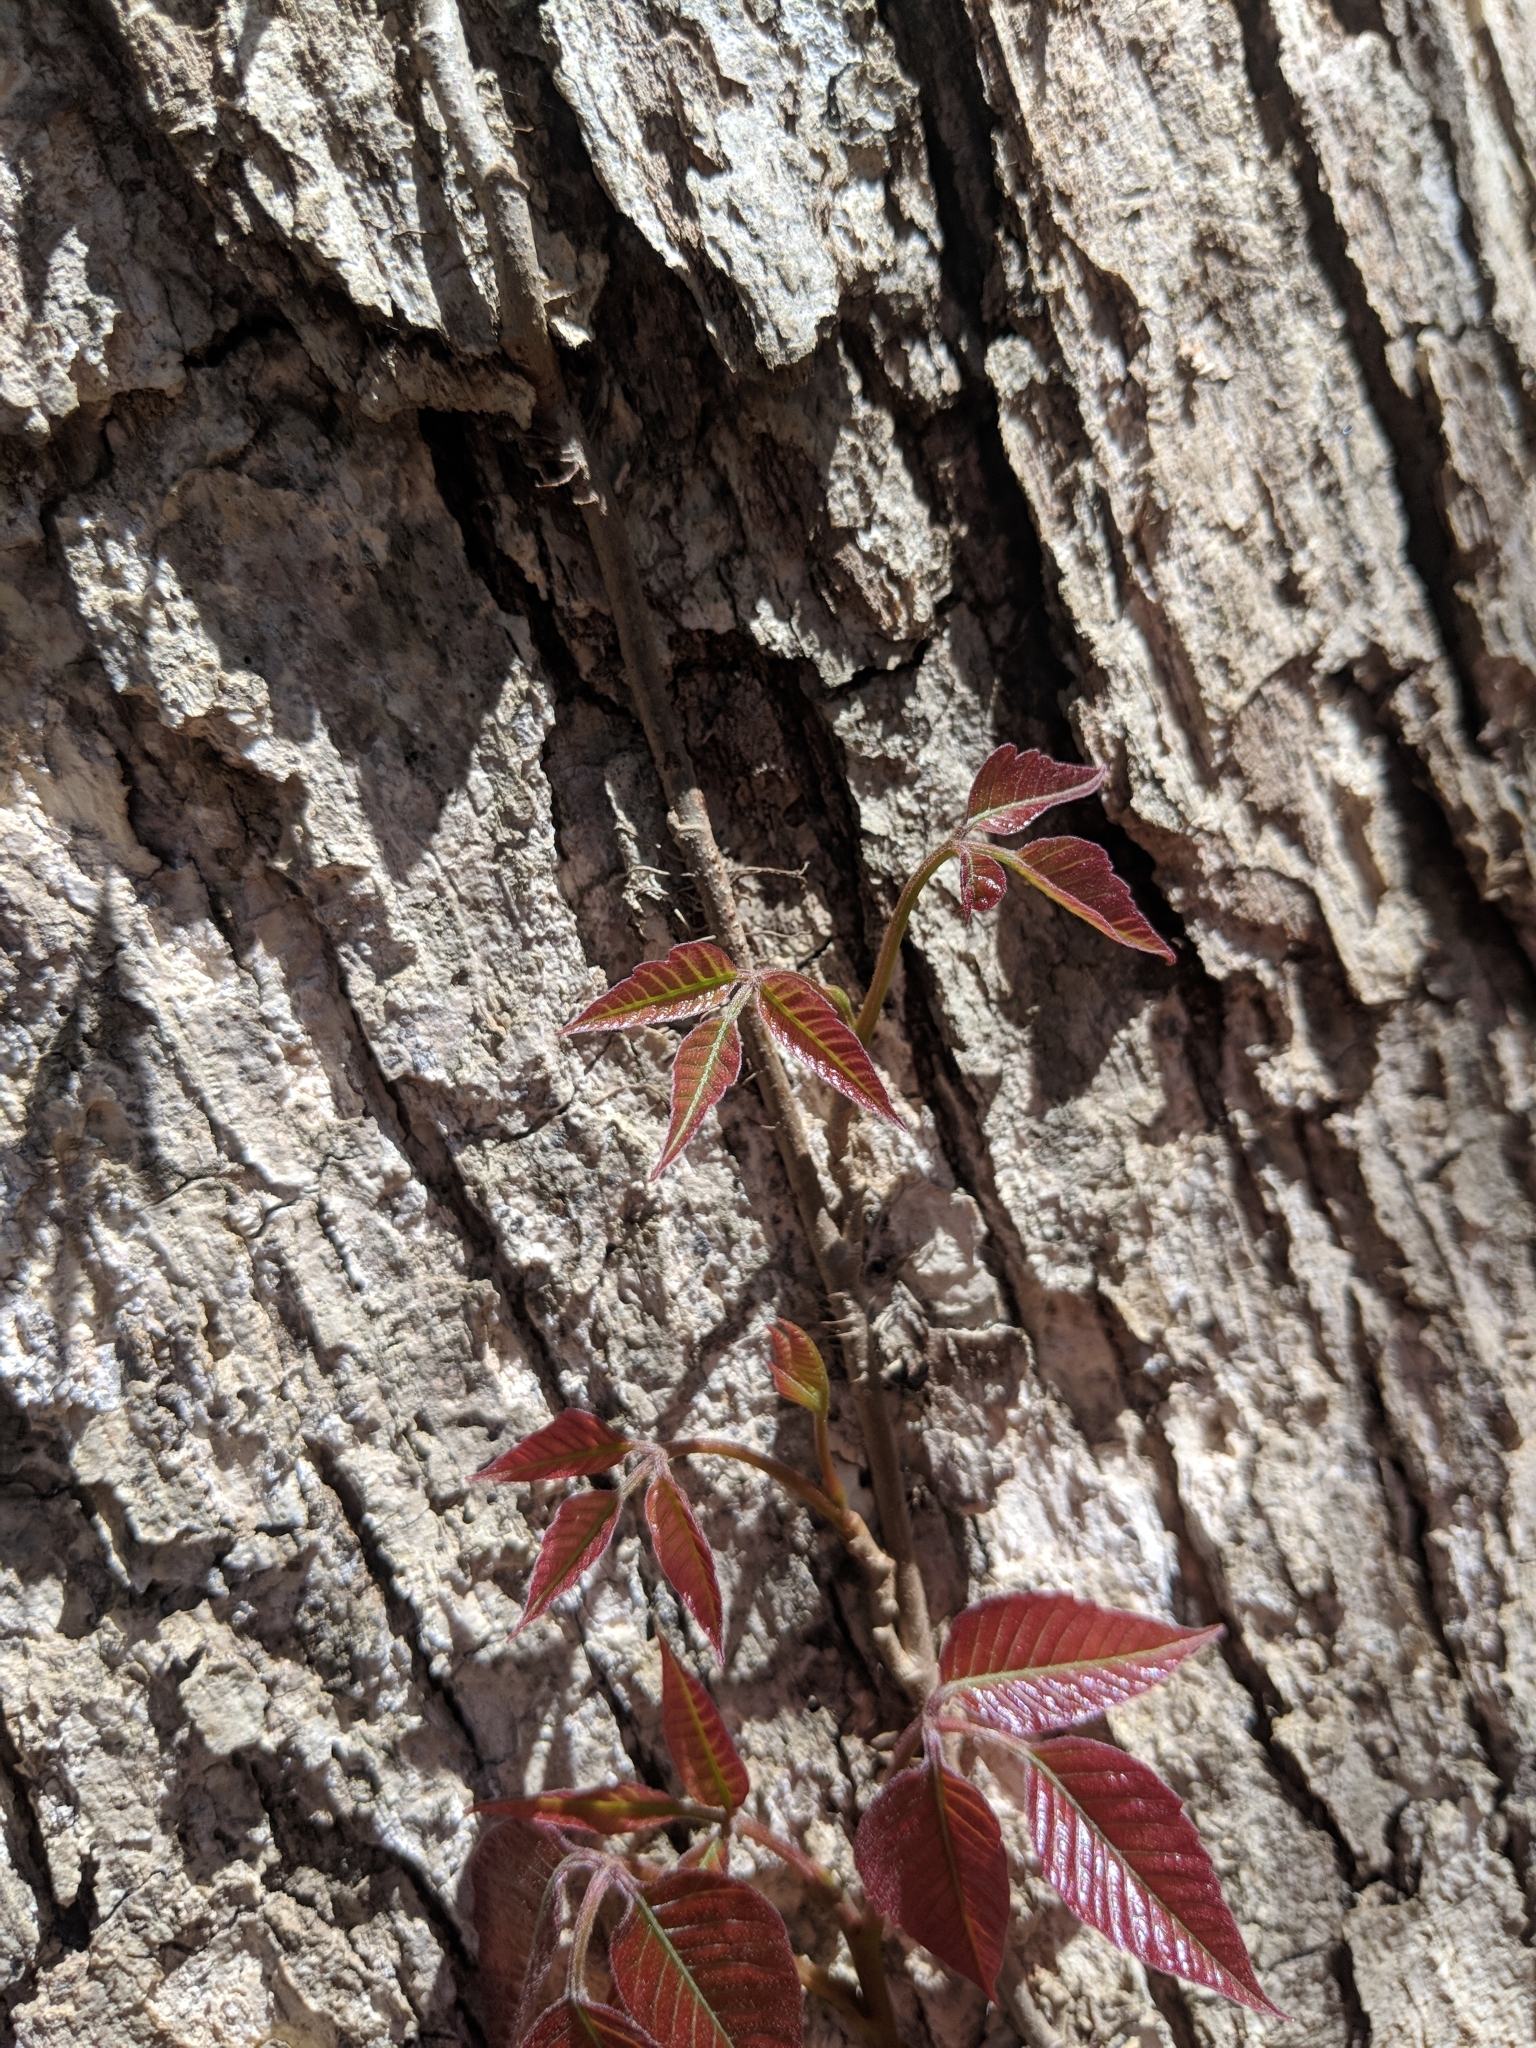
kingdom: Plantae
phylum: Tracheophyta
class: Magnoliopsida
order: Sapindales
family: Anacardiaceae
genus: Toxicodendron
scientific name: Toxicodendron radicans
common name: Poison ivy
